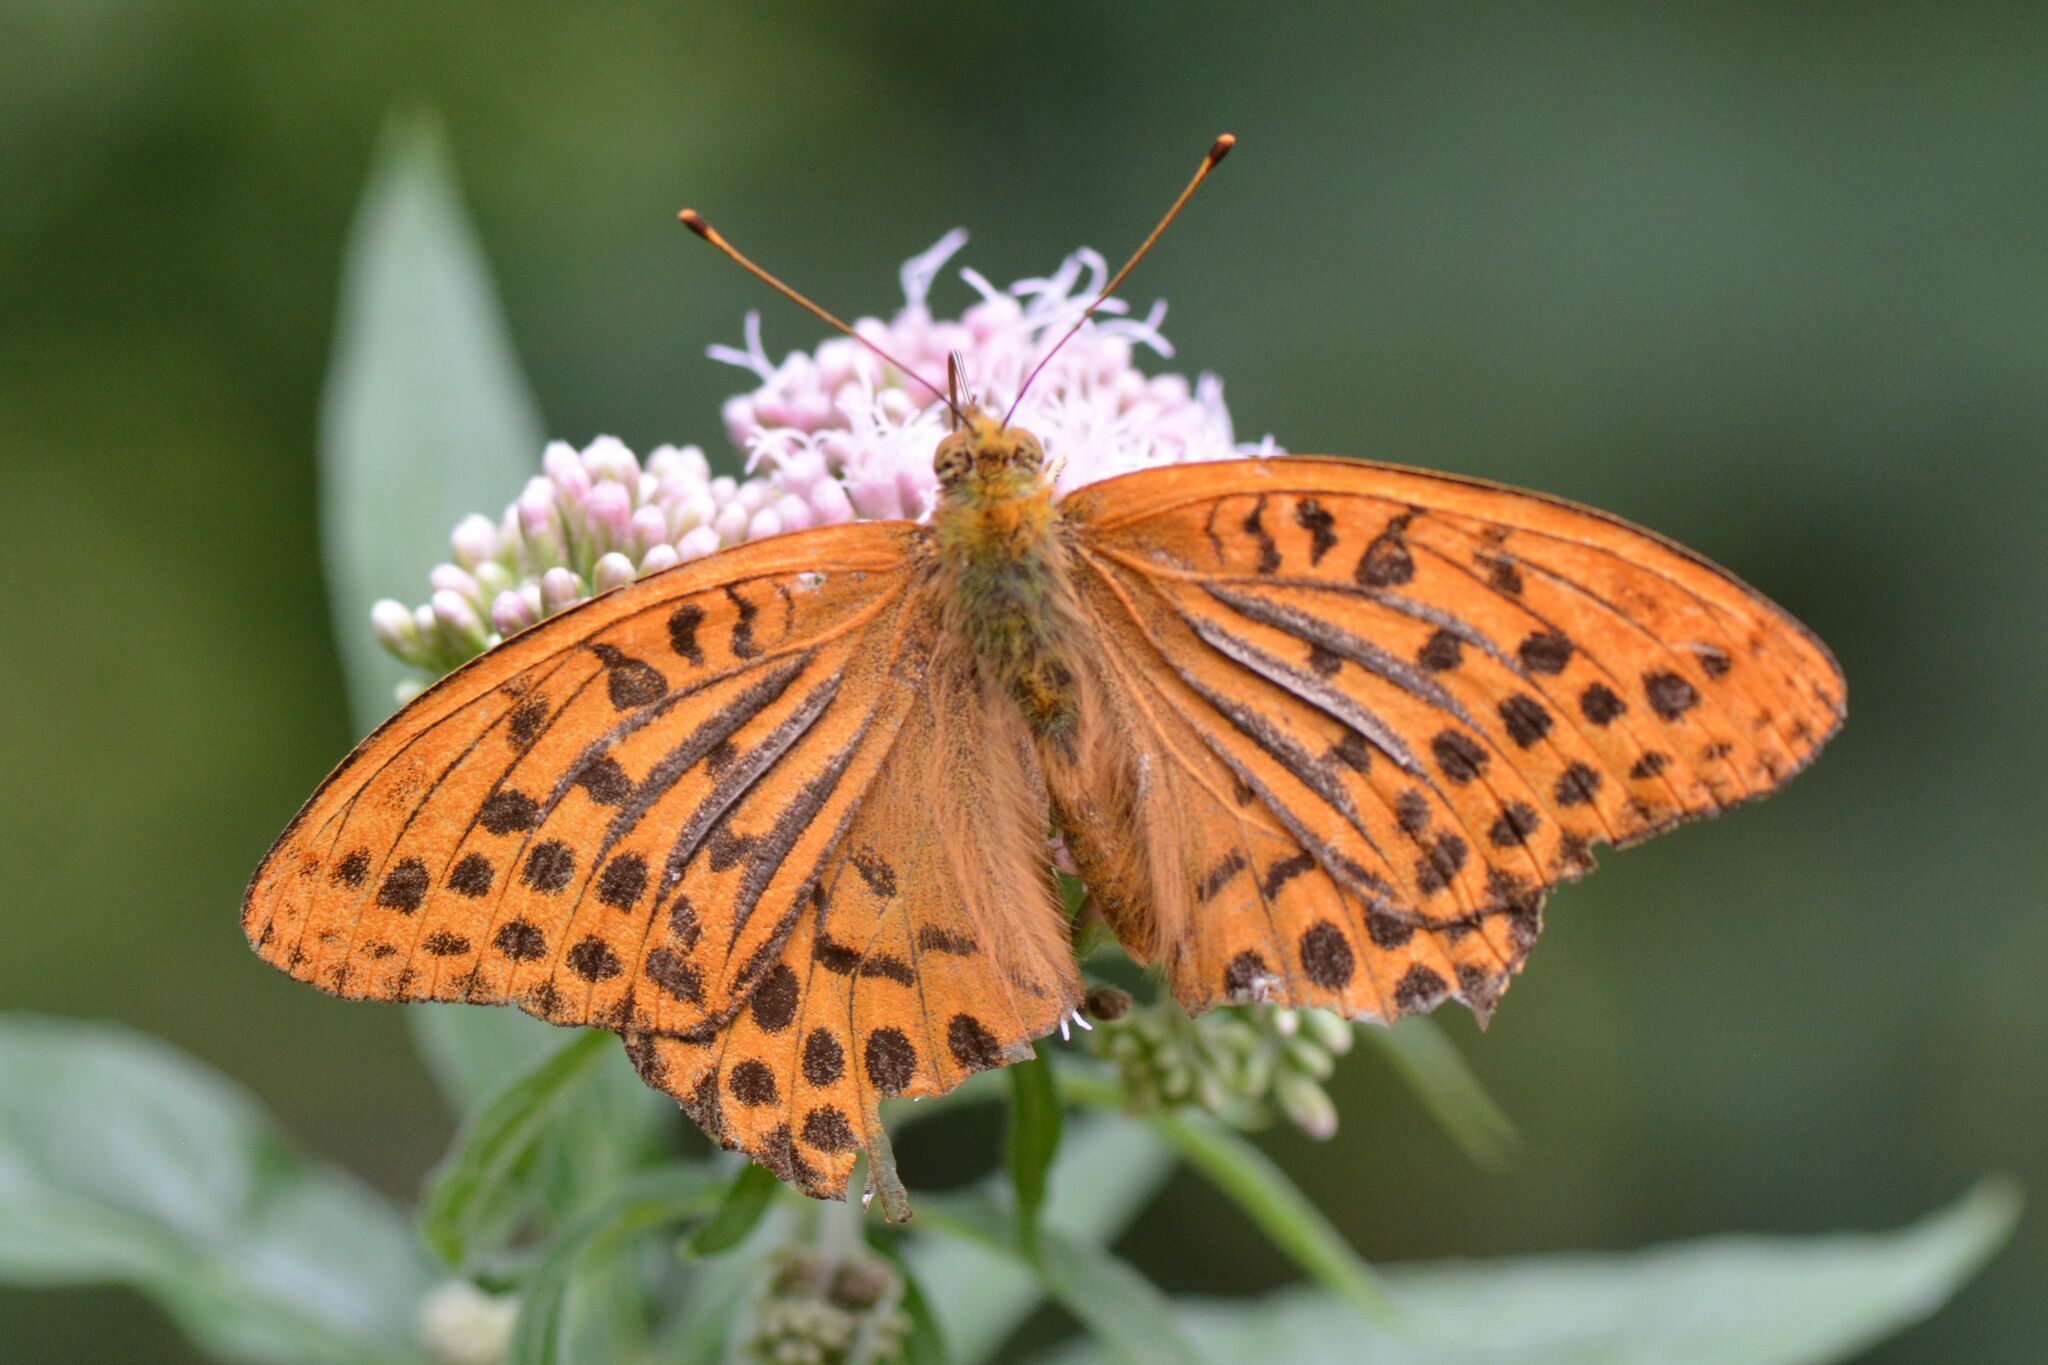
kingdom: Animalia
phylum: Arthropoda
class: Insecta
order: Lepidoptera
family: Nymphalidae
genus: Argynnis
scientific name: Argynnis paphia
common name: Silver-washed fritillary
